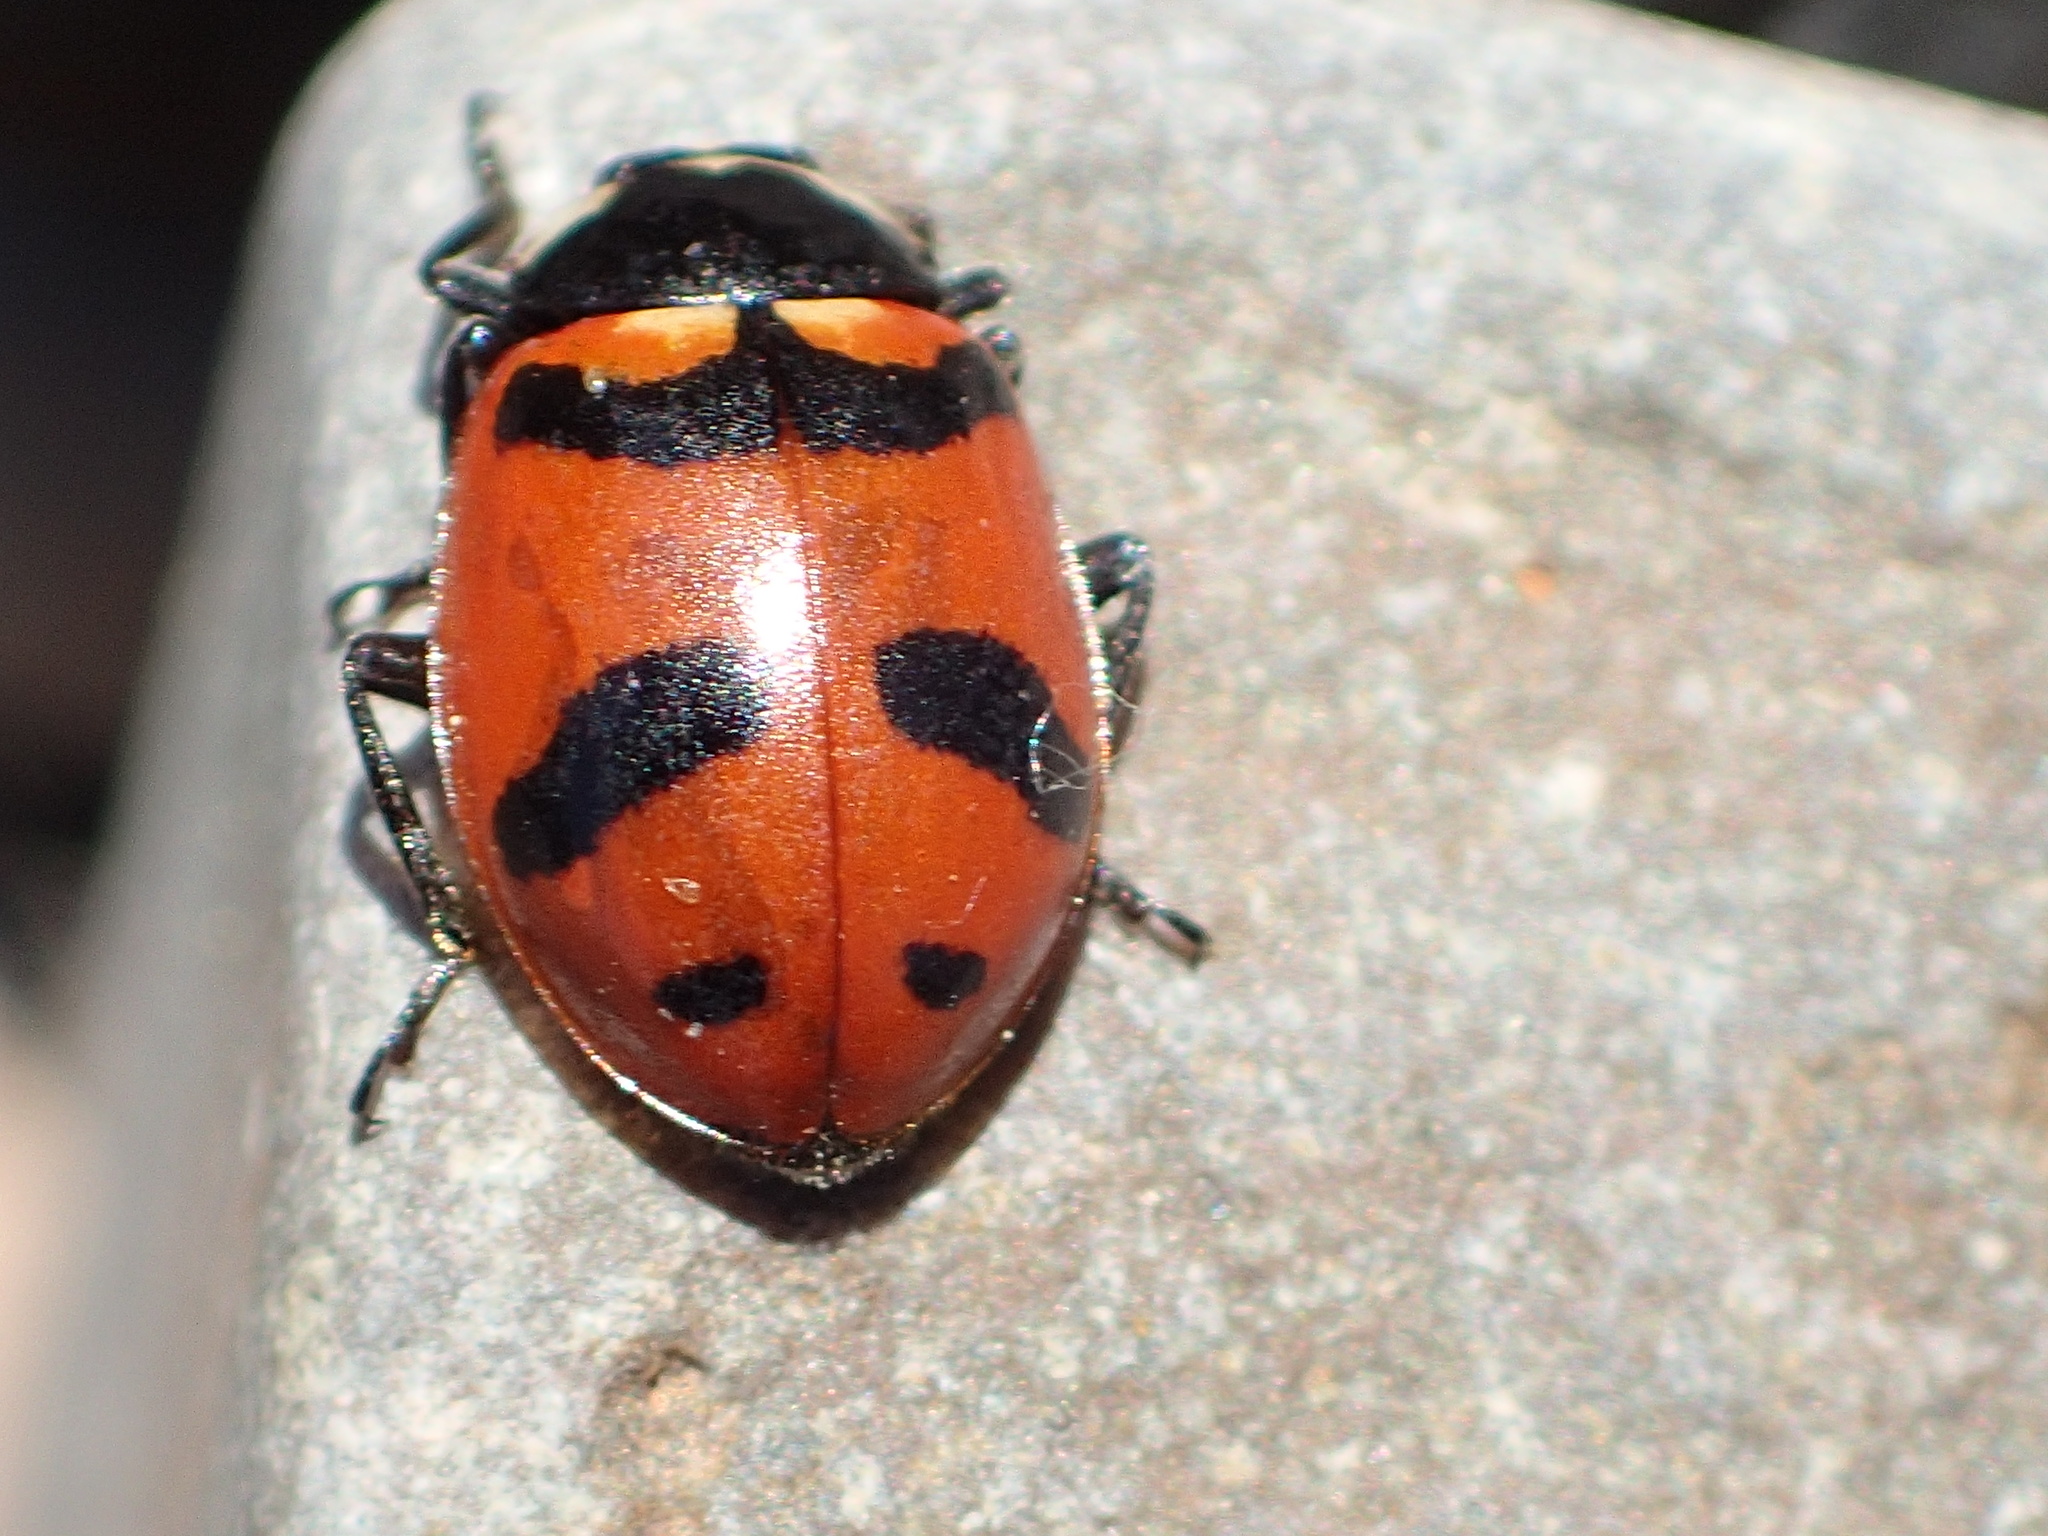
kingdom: Animalia
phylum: Arthropoda
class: Insecta
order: Coleoptera
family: Coccinellidae
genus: Hippodamia
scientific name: Hippodamia quinquesignata
